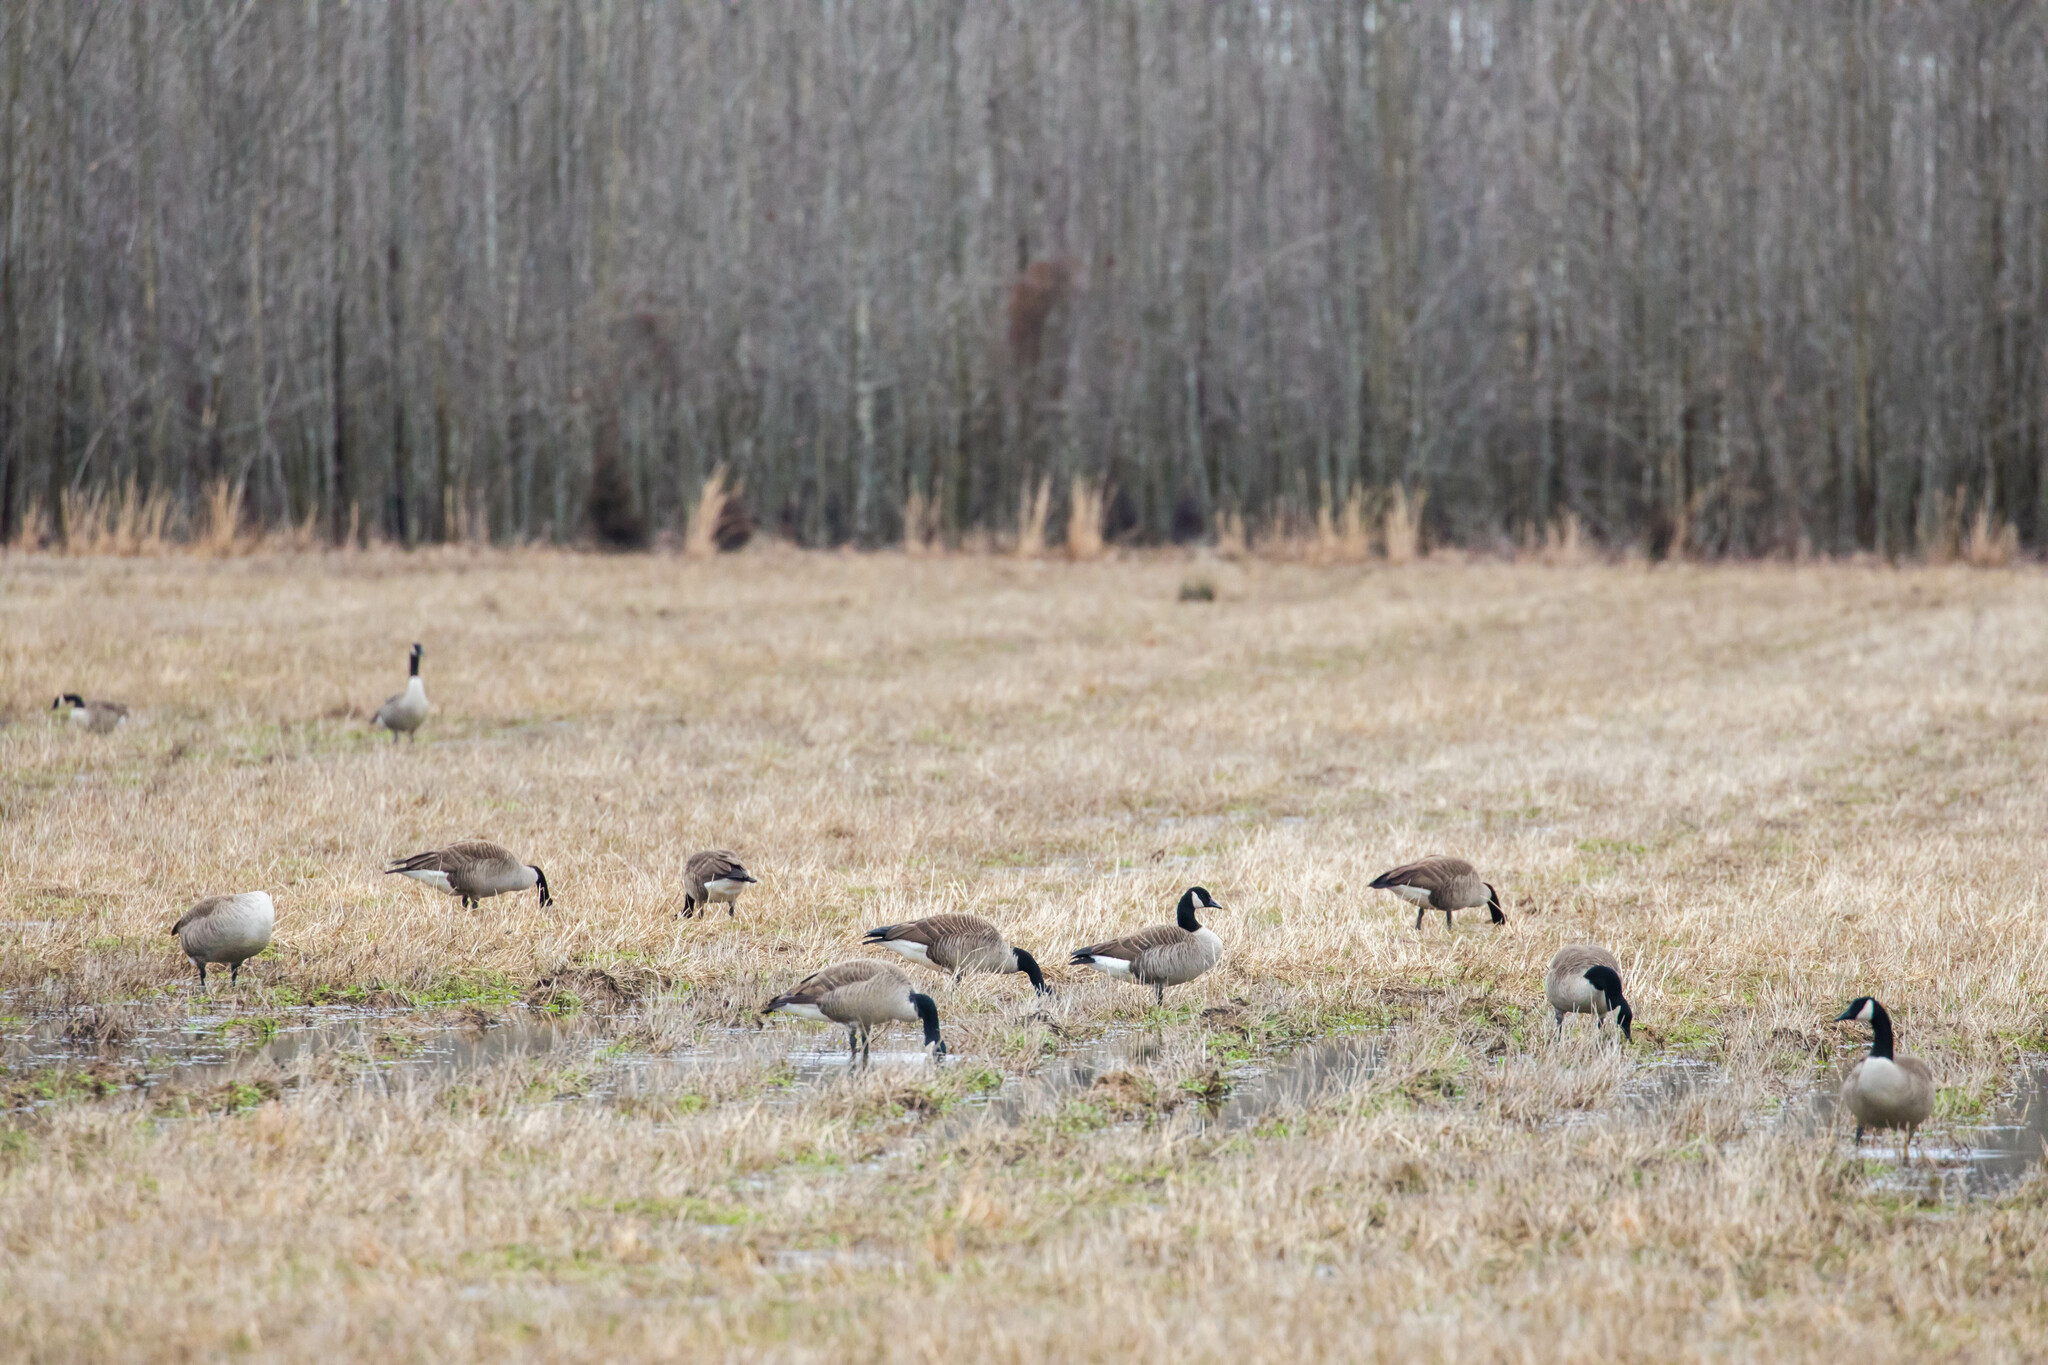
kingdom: Animalia
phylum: Chordata
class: Aves
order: Anseriformes
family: Anatidae
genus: Branta
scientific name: Branta canadensis
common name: Canada goose
